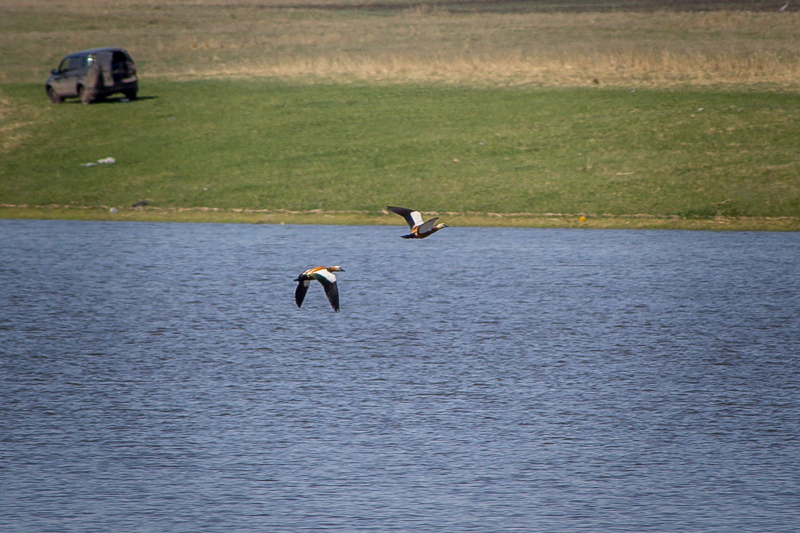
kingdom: Animalia
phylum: Chordata
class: Aves
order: Anseriformes
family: Anatidae
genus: Tadorna
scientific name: Tadorna ferruginea
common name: Ruddy shelduck
